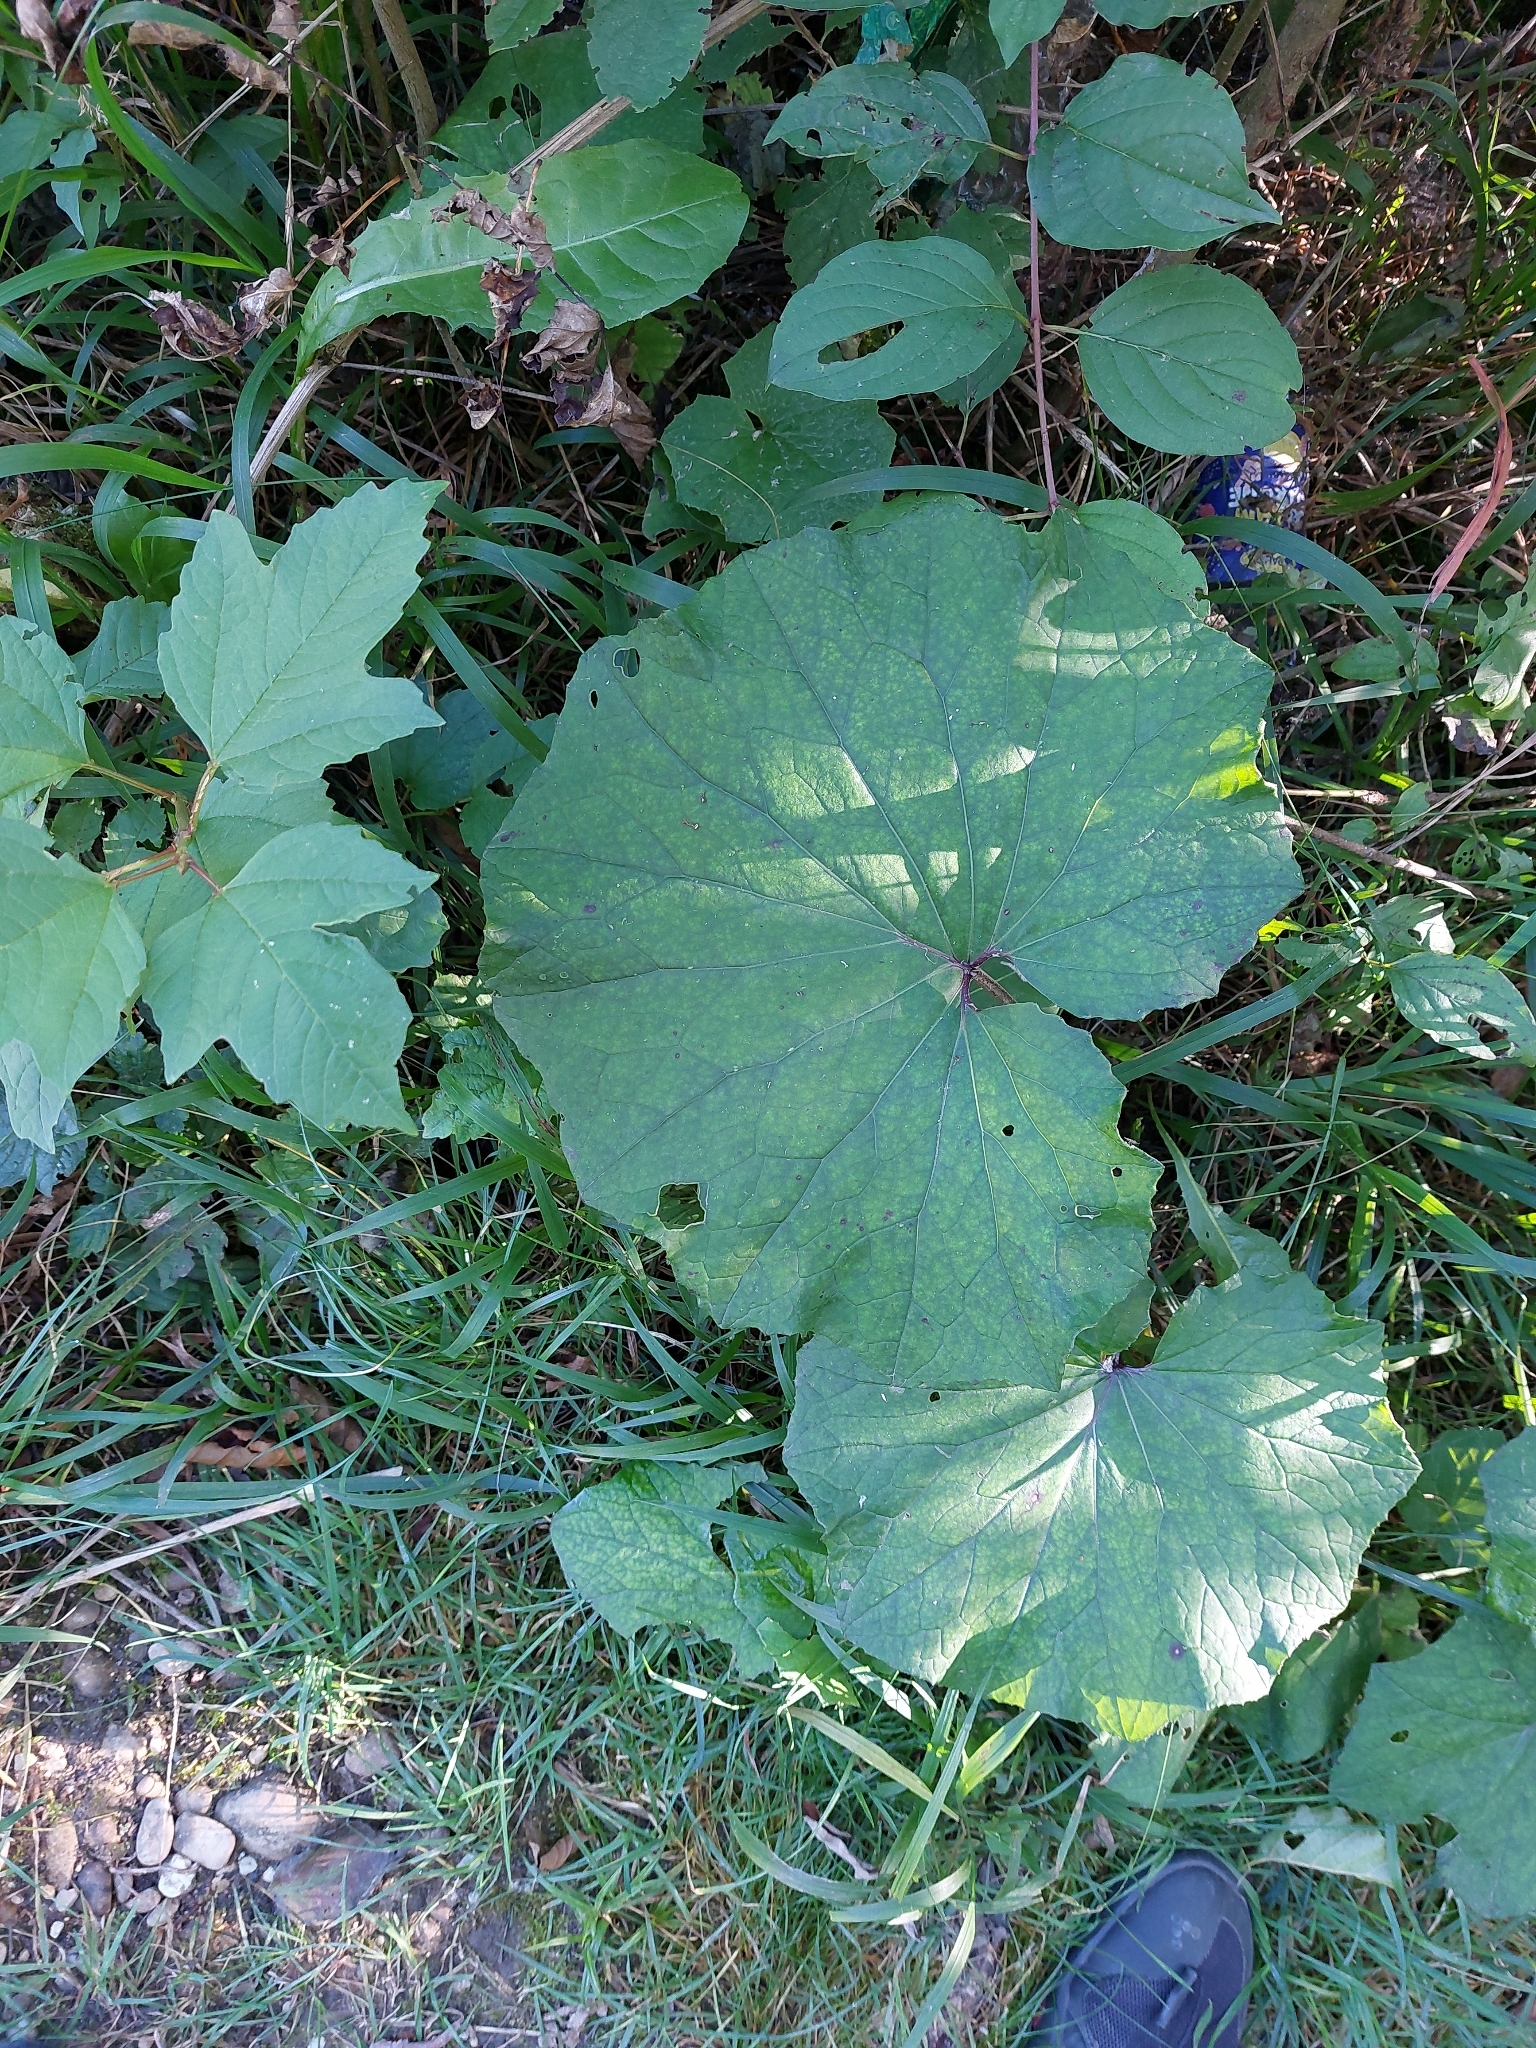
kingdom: Plantae
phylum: Tracheophyta
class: Magnoliopsida
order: Asterales
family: Asteraceae
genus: Tussilago
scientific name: Tussilago farfara
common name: Coltsfoot
